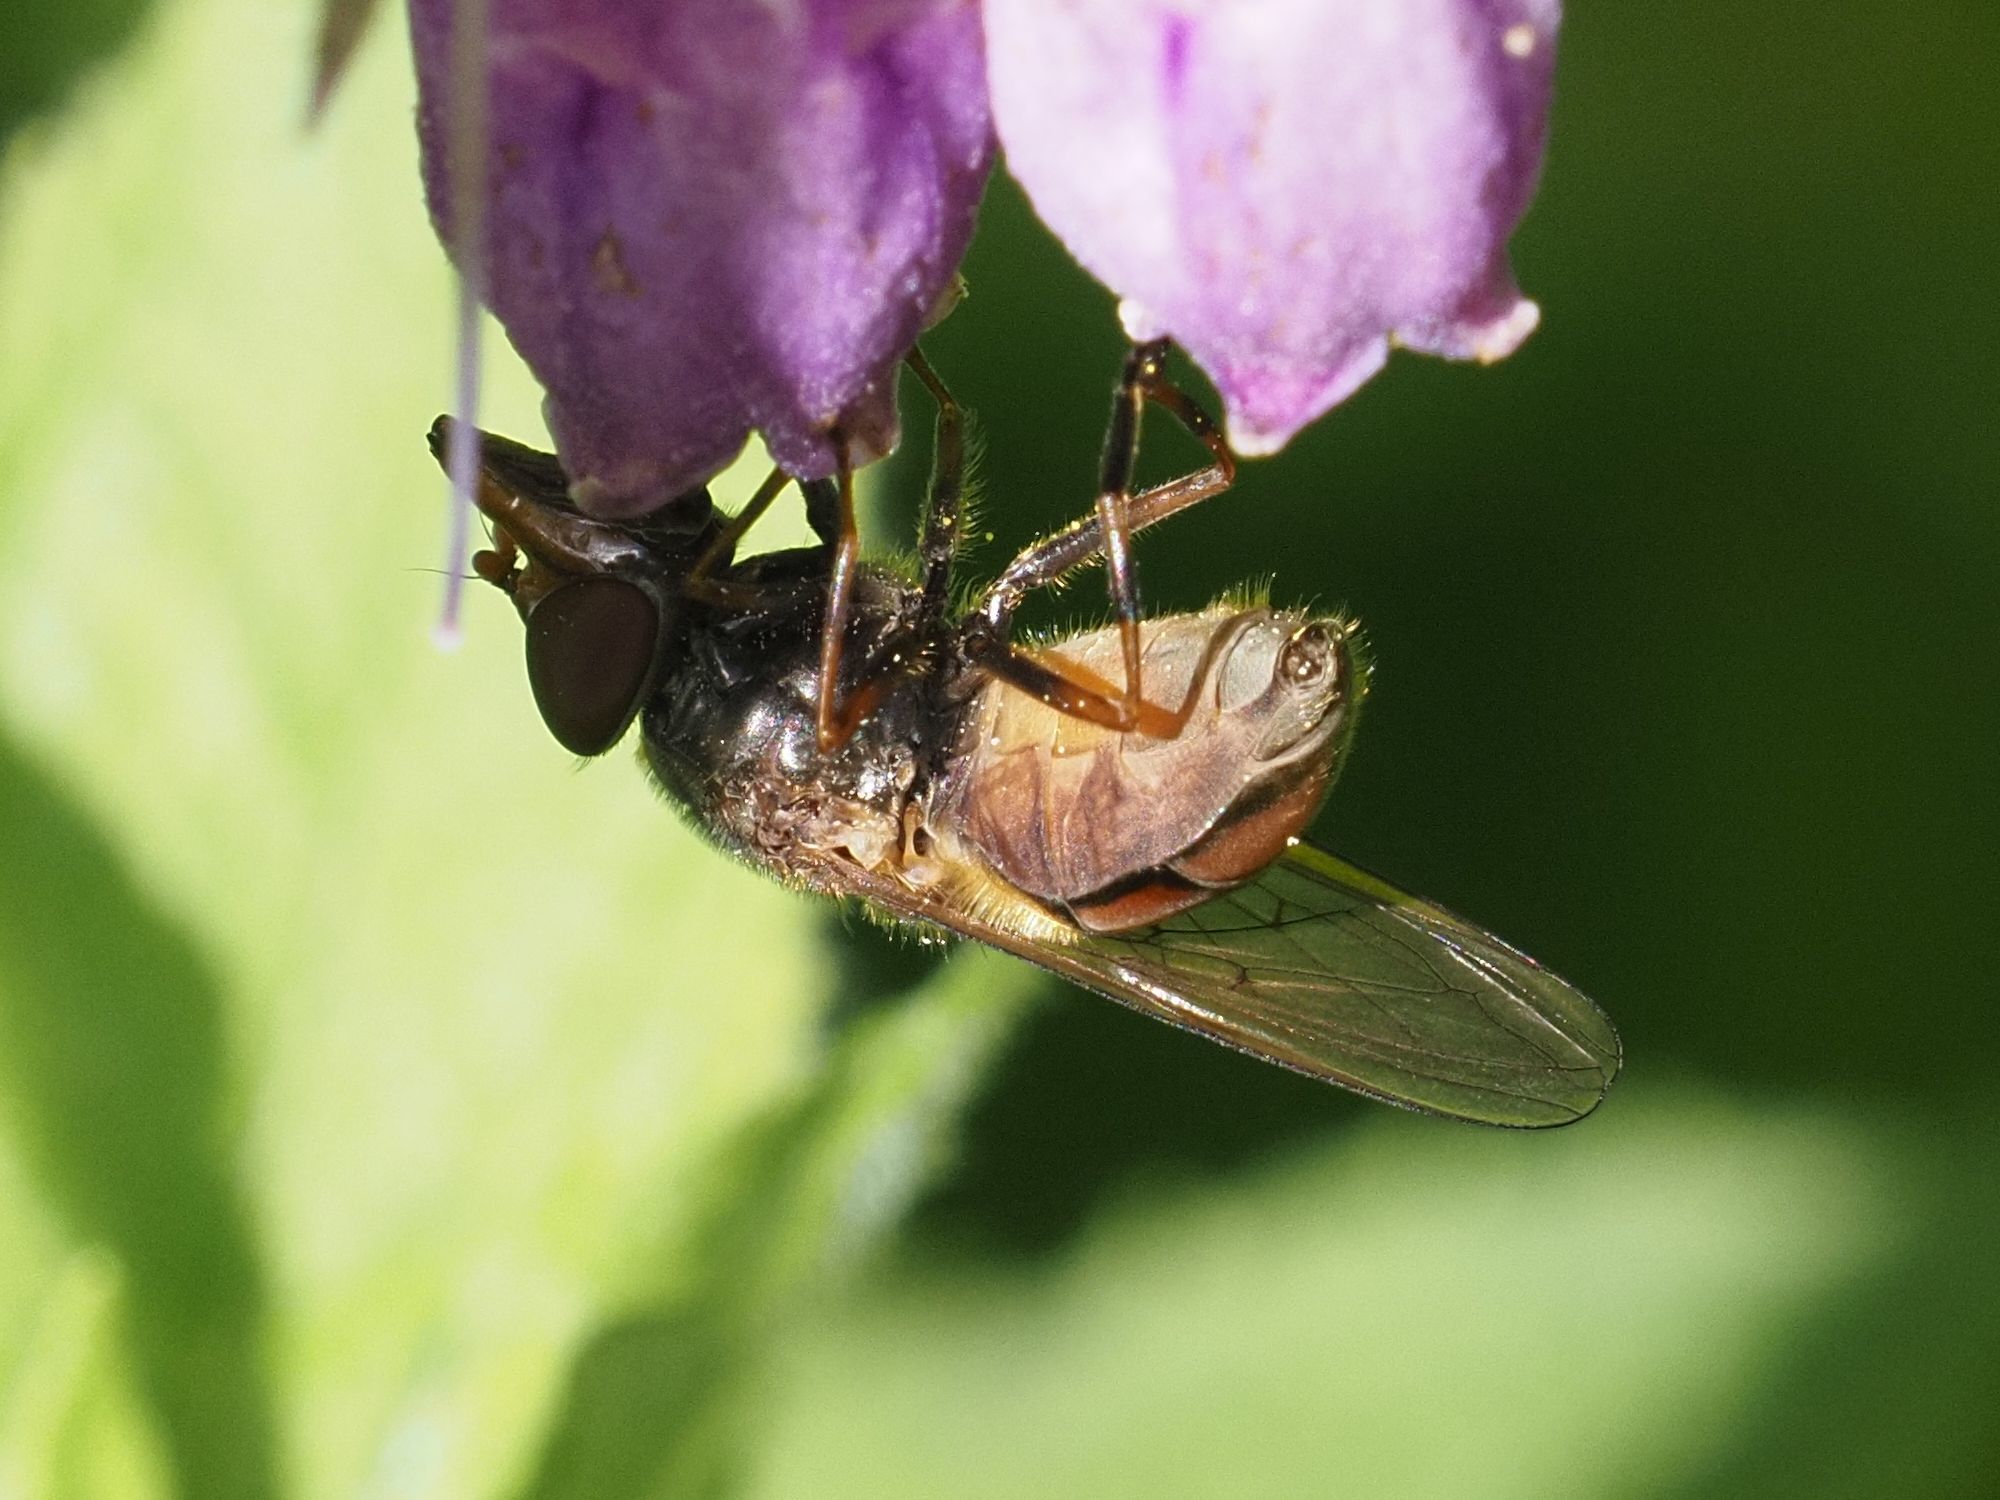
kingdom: Animalia
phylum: Arthropoda
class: Insecta
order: Diptera
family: Syrphidae
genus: Rhingia
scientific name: Rhingia campestris
